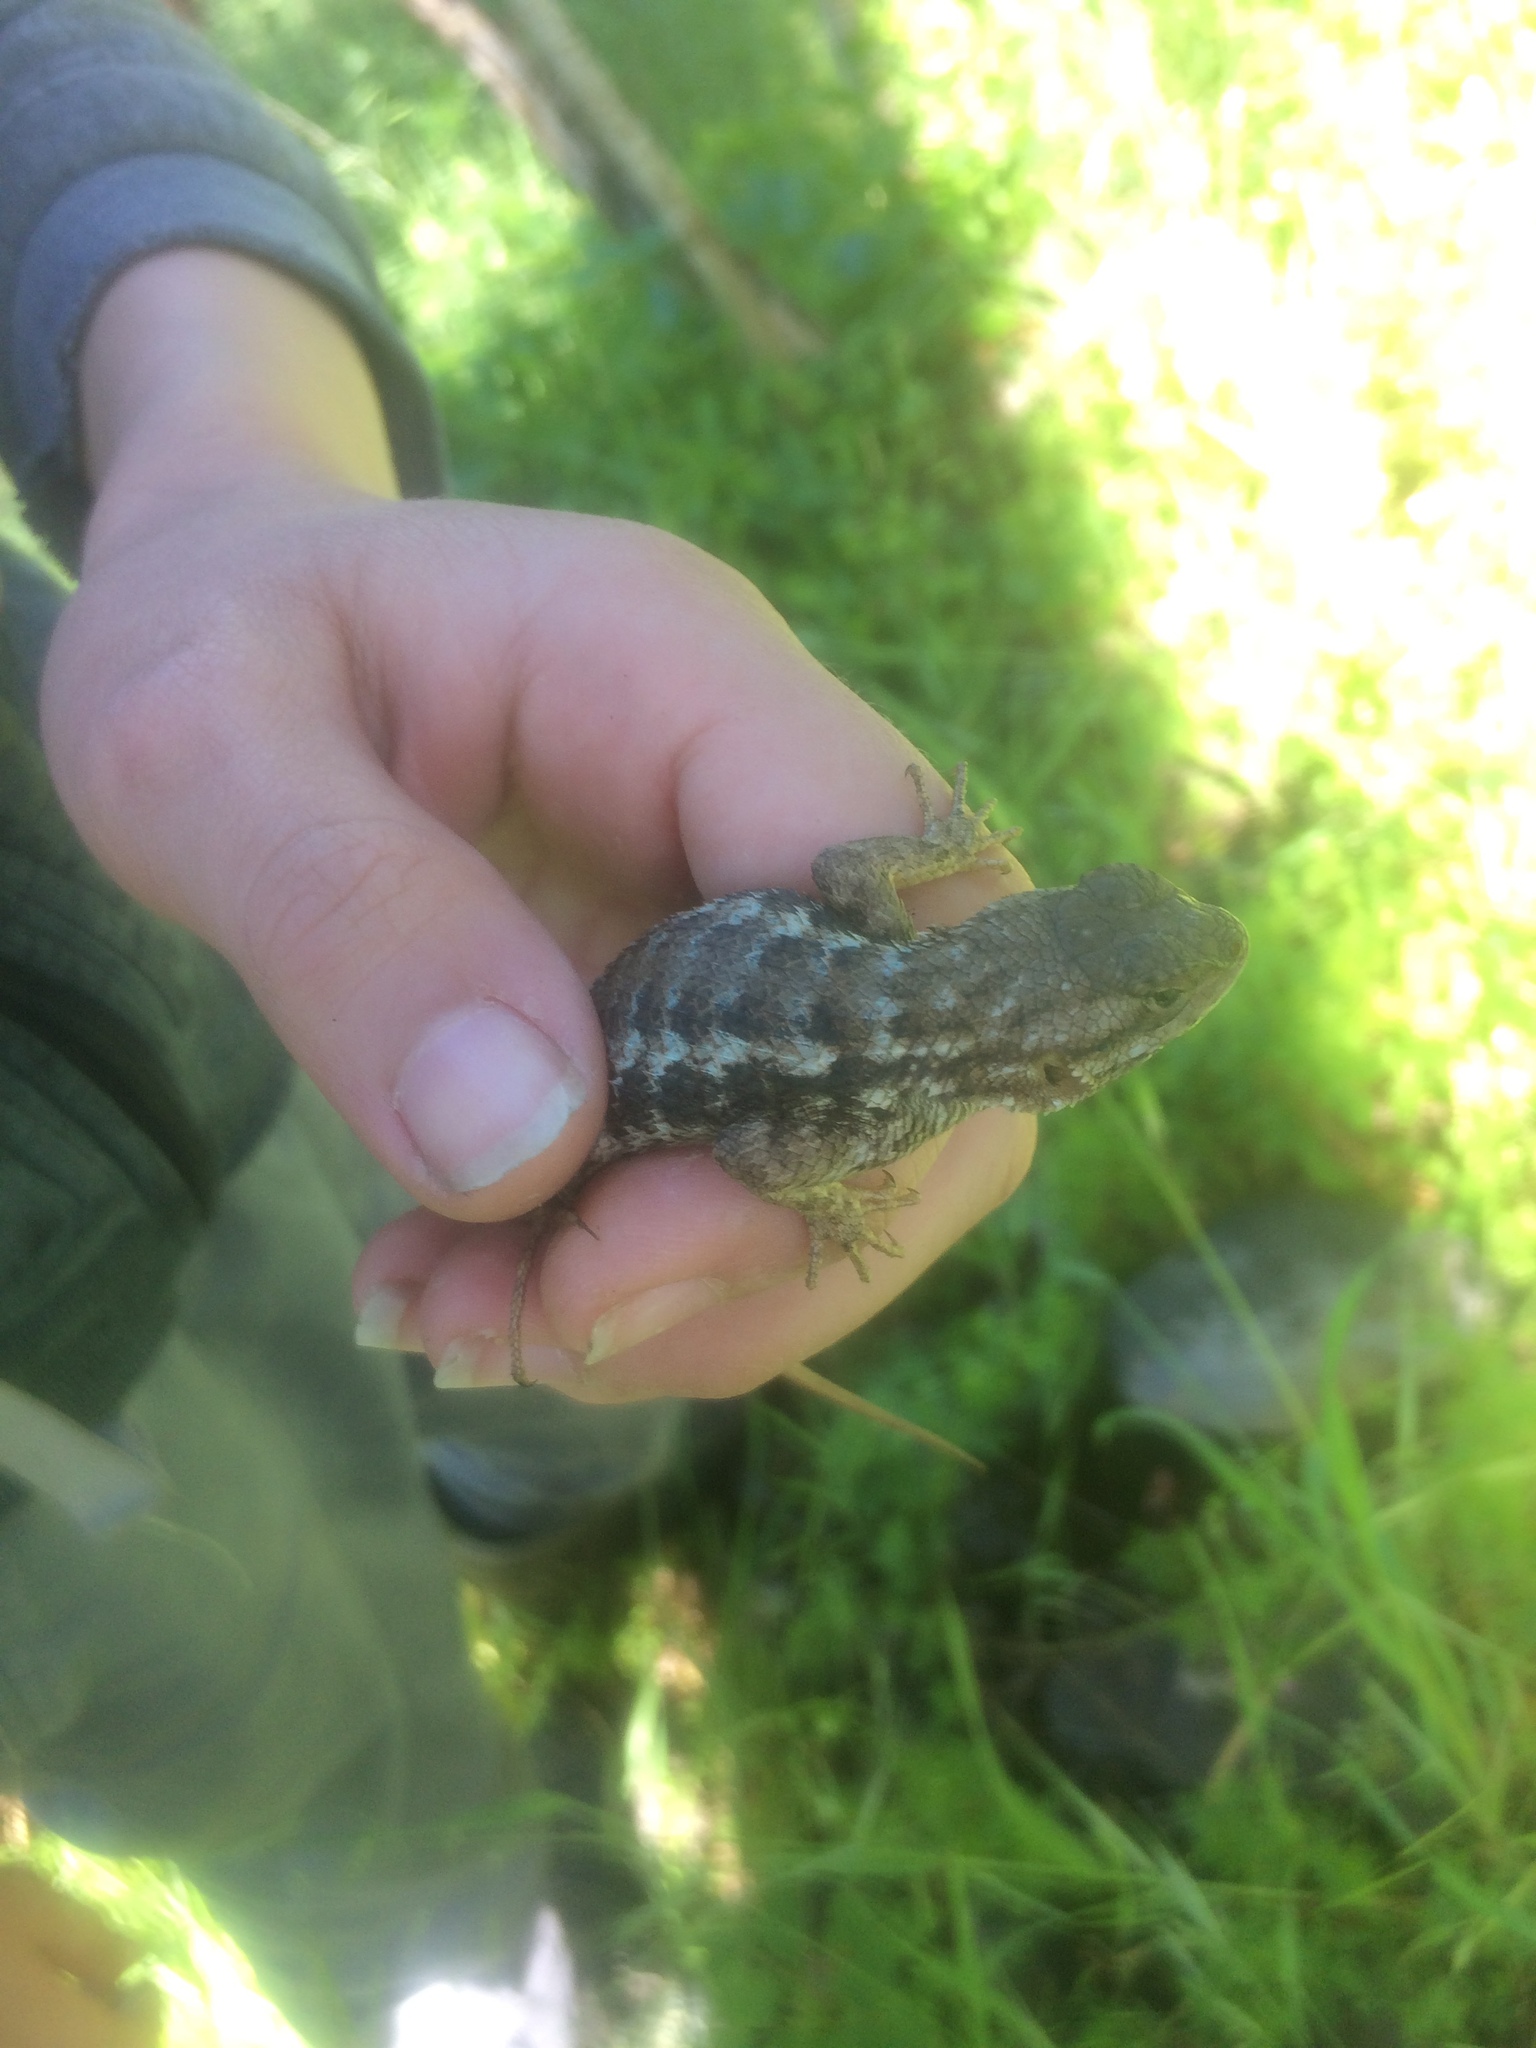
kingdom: Animalia
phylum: Chordata
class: Squamata
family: Phrynosomatidae
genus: Sceloporus
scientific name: Sceloporus occidentalis
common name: Western fence lizard
